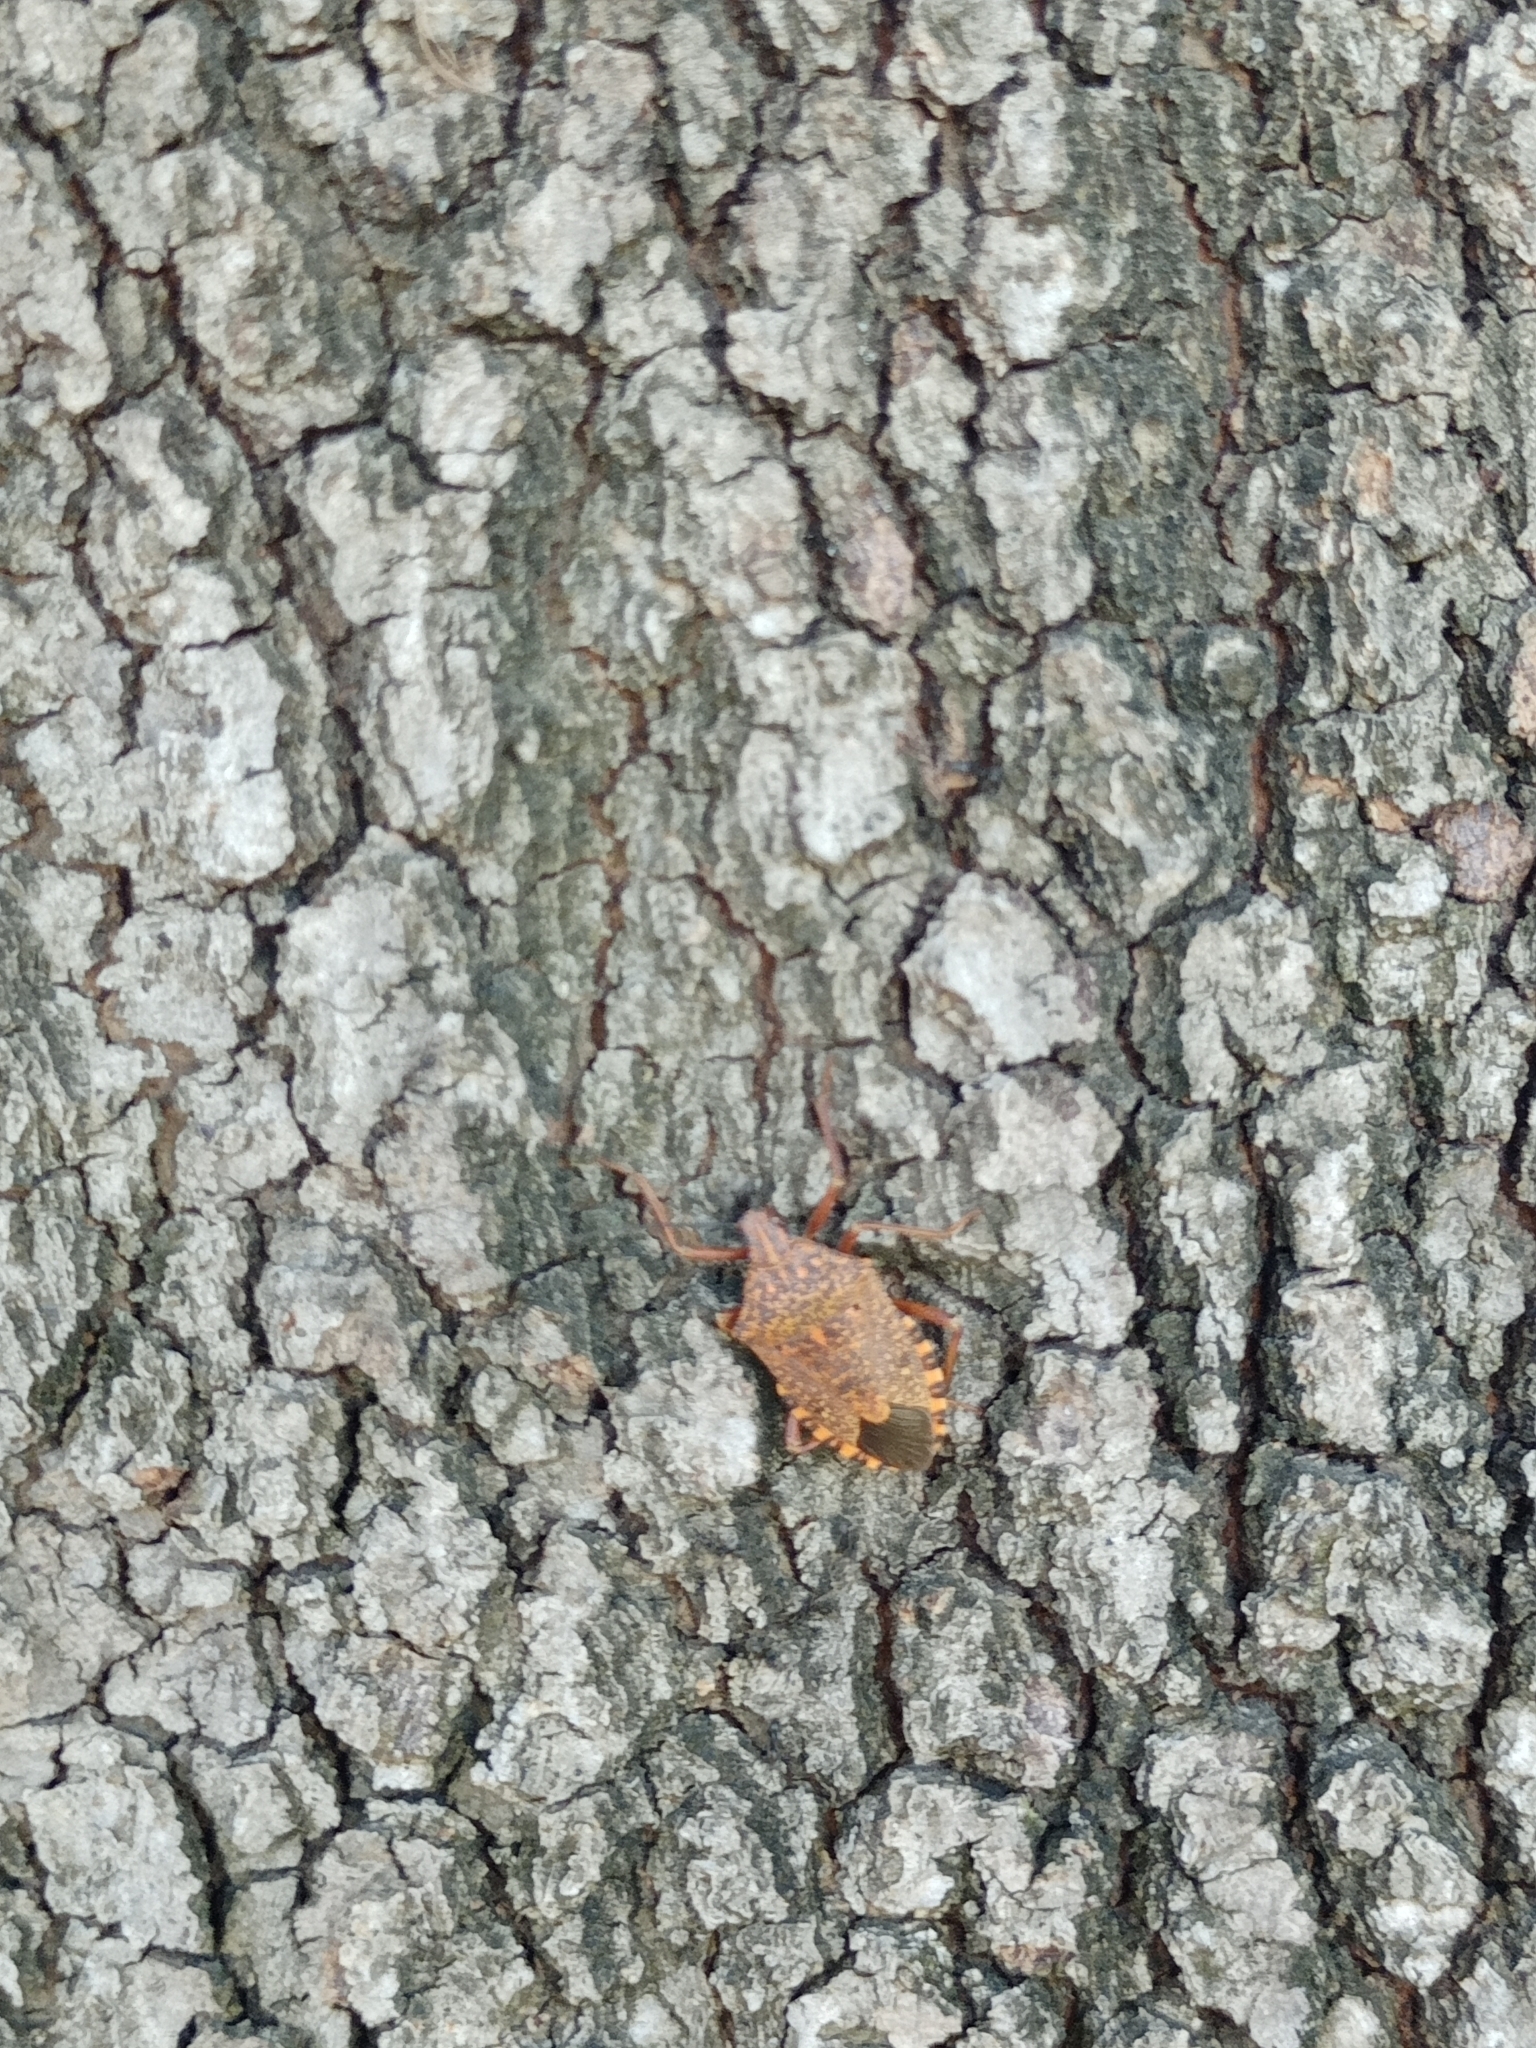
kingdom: Animalia
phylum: Arthropoda
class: Insecta
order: Hemiptera
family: Pentatomidae
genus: Apodiphus
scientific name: Apodiphus
